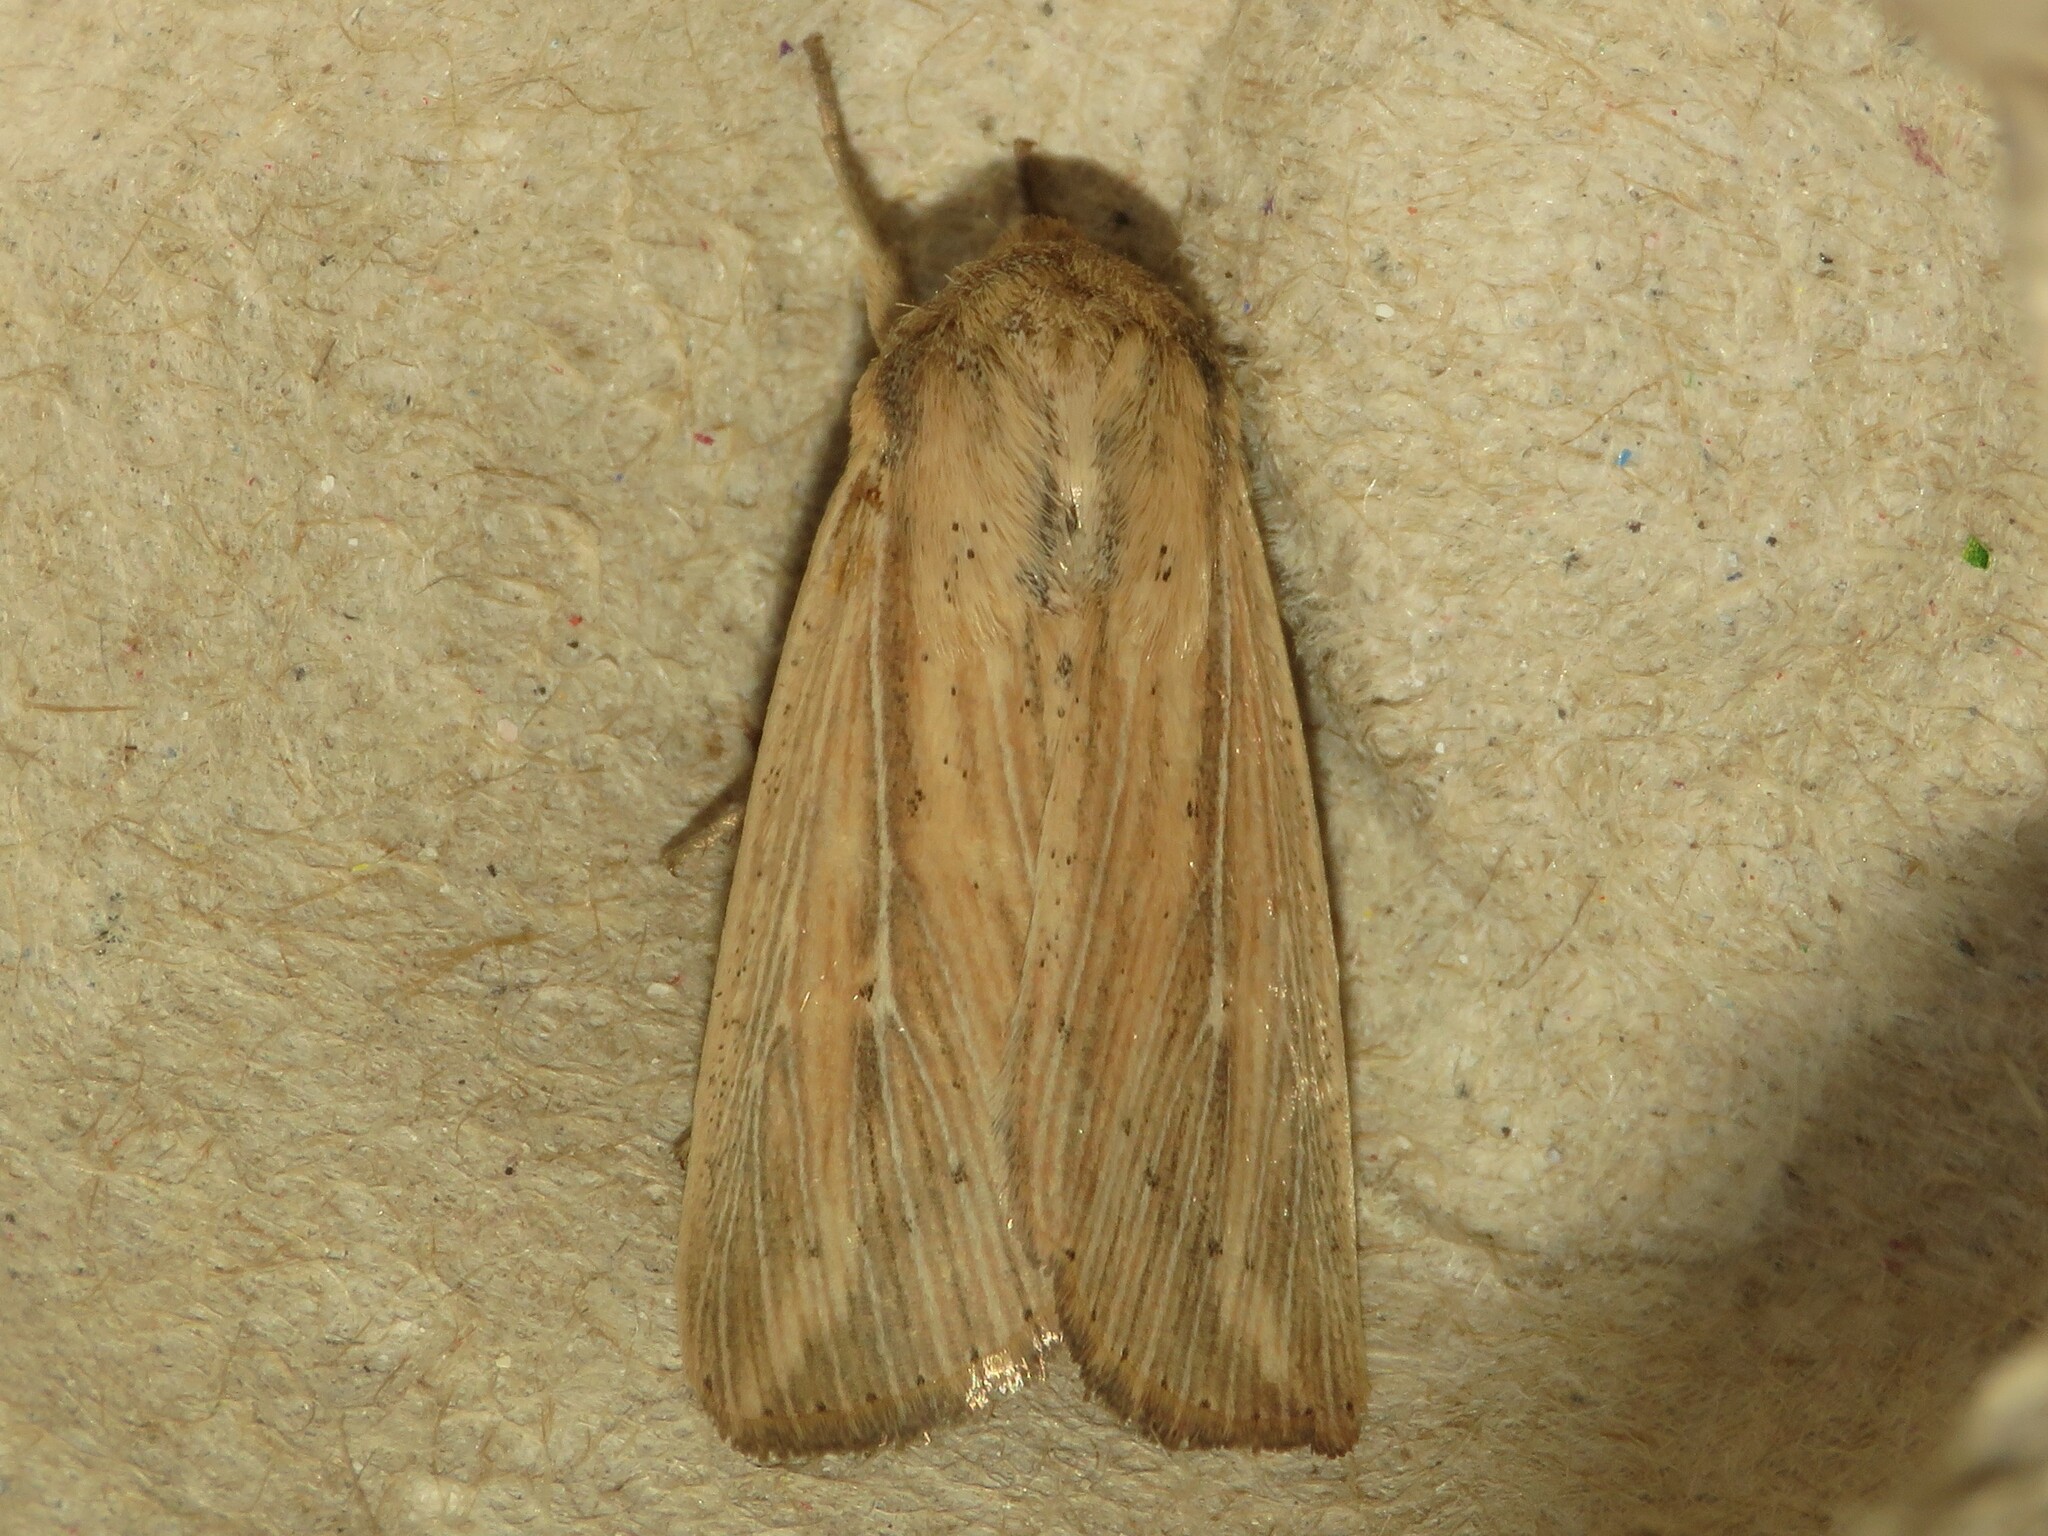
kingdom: Animalia
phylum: Arthropoda
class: Insecta
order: Lepidoptera
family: Noctuidae
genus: Leucania
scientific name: Leucania linda
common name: Linda's wainscot
